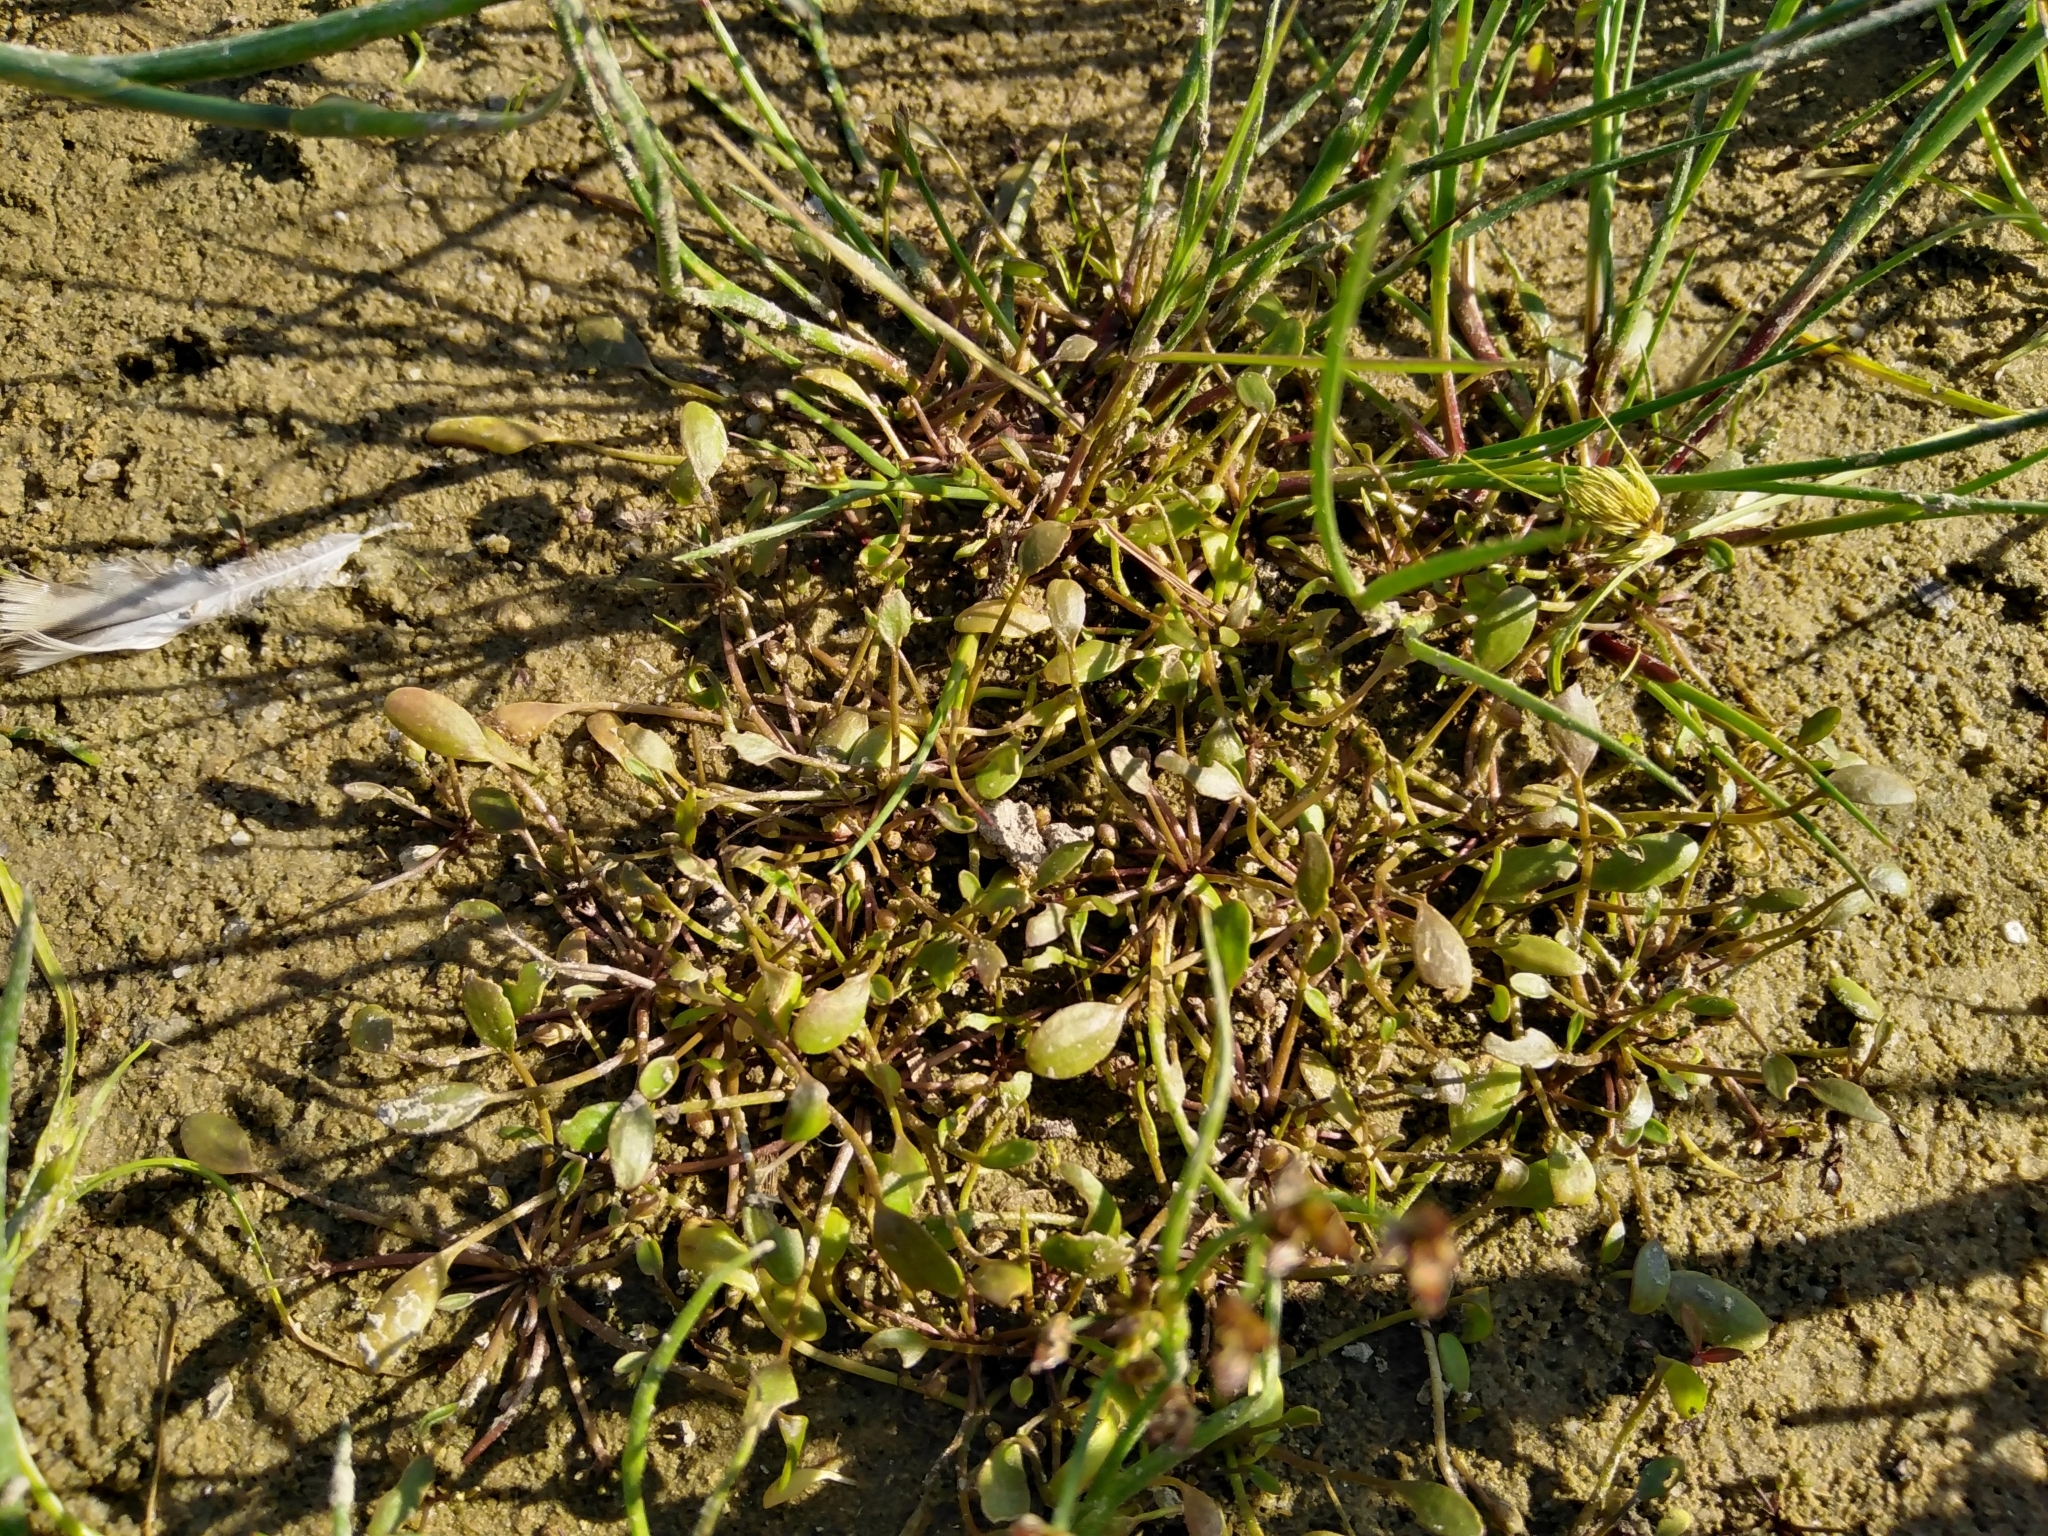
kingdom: Plantae
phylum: Tracheophyta
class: Magnoliopsida
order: Lamiales
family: Scrophulariaceae
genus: Limosella
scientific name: Limosella aquatica
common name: Mudwort
